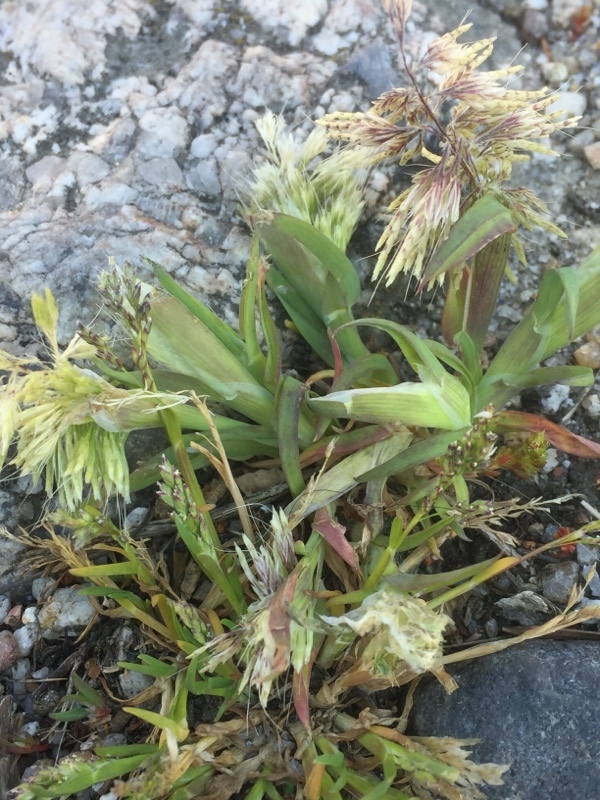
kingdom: Plantae
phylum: Tracheophyta
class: Liliopsida
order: Poales
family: Poaceae
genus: Lamarckia
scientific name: Lamarckia aurea
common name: Golden dog's-tail
